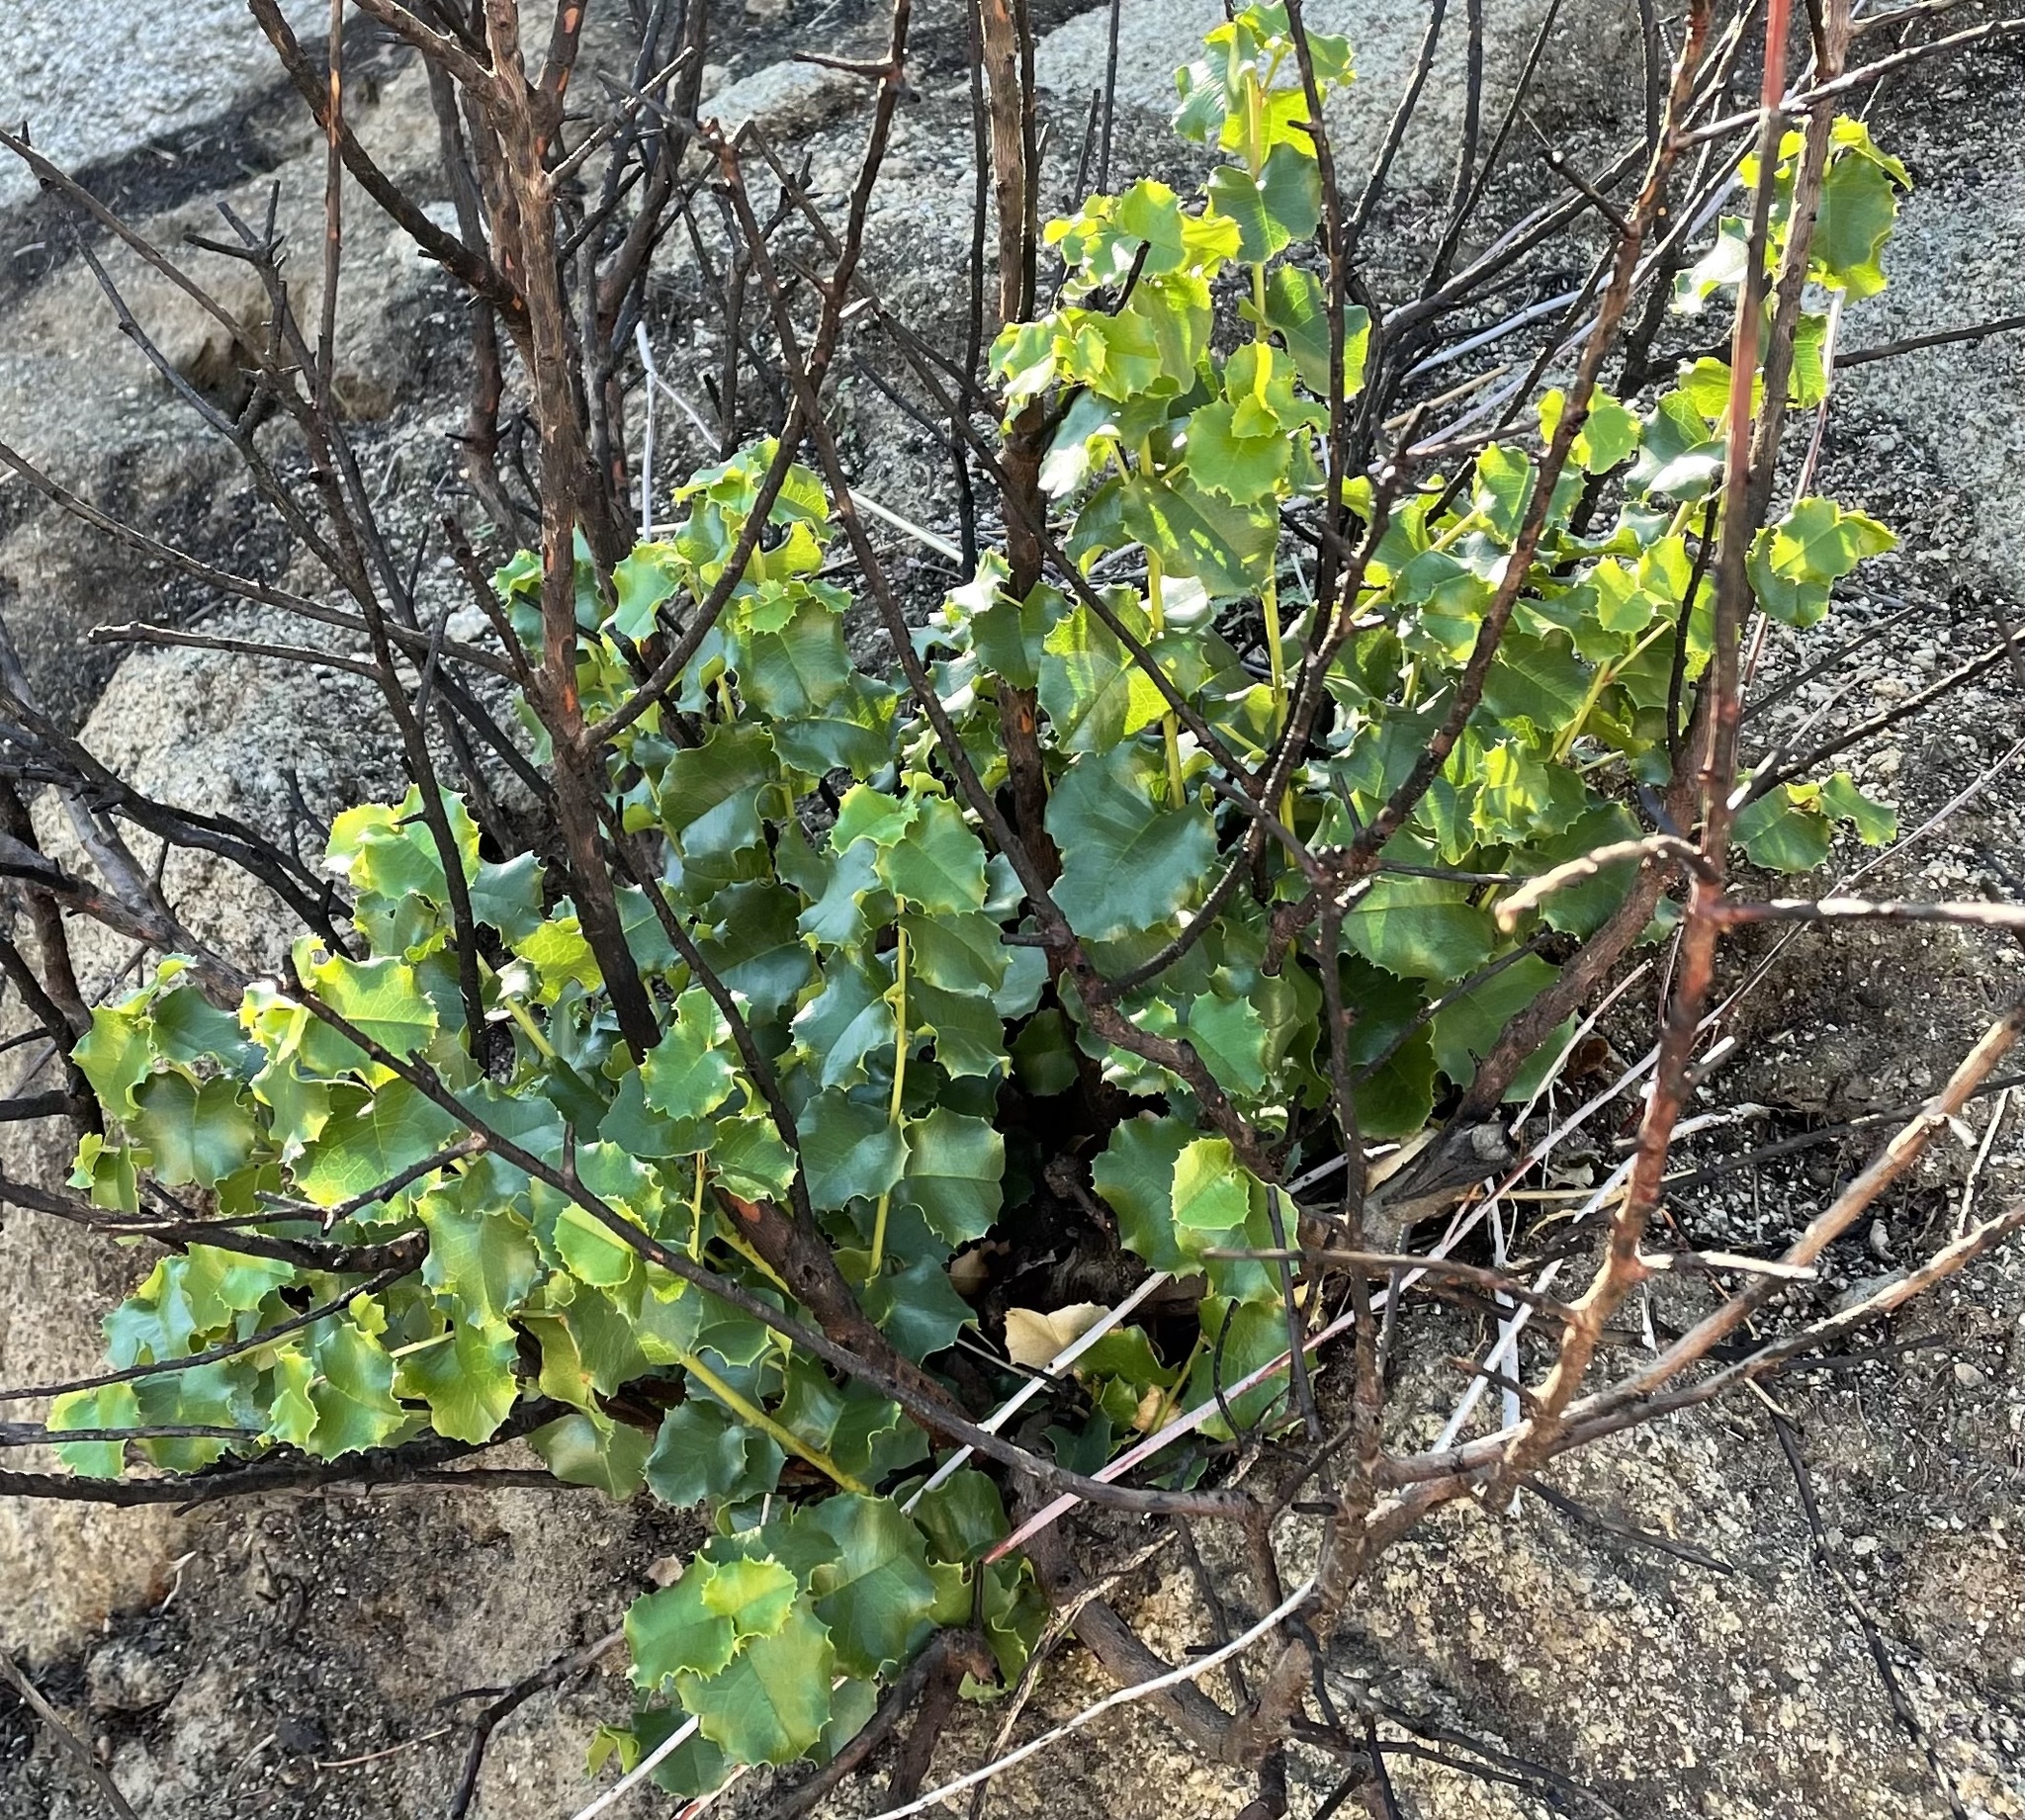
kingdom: Plantae
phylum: Tracheophyta
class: Magnoliopsida
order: Rosales
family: Rosaceae
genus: Prunus
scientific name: Prunus ilicifolia
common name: Hollyleaf cherry
